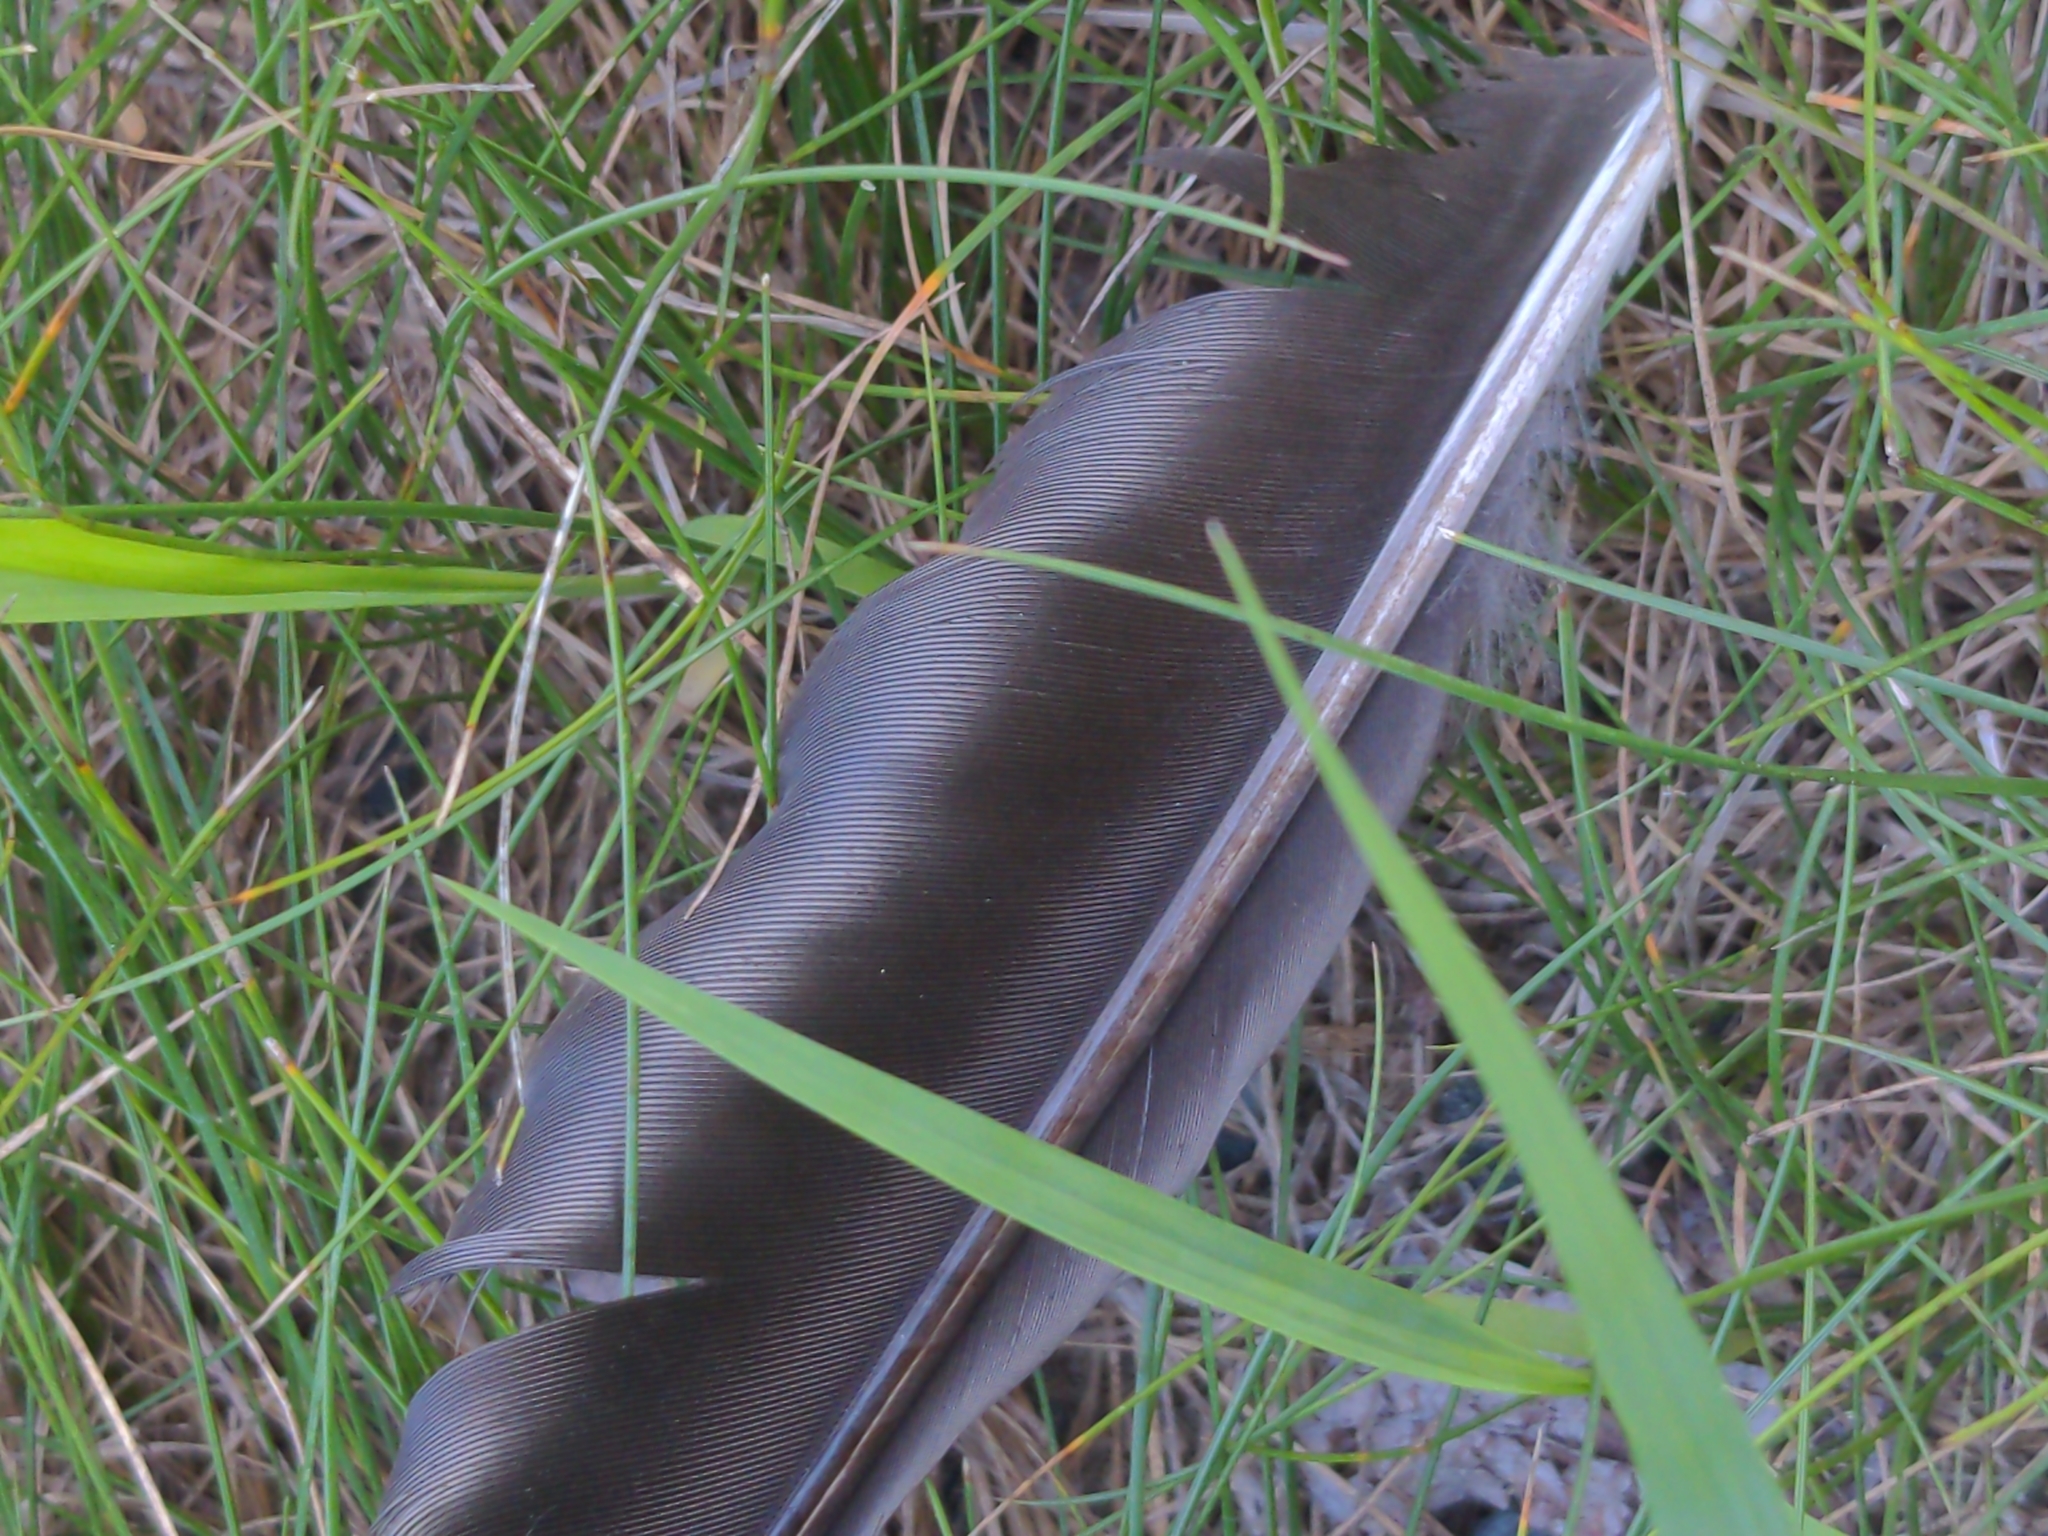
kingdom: Animalia
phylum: Chordata
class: Aves
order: Passeriformes
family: Corvidae
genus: Corvus
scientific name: Corvus brachyrhynchos
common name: American crow
